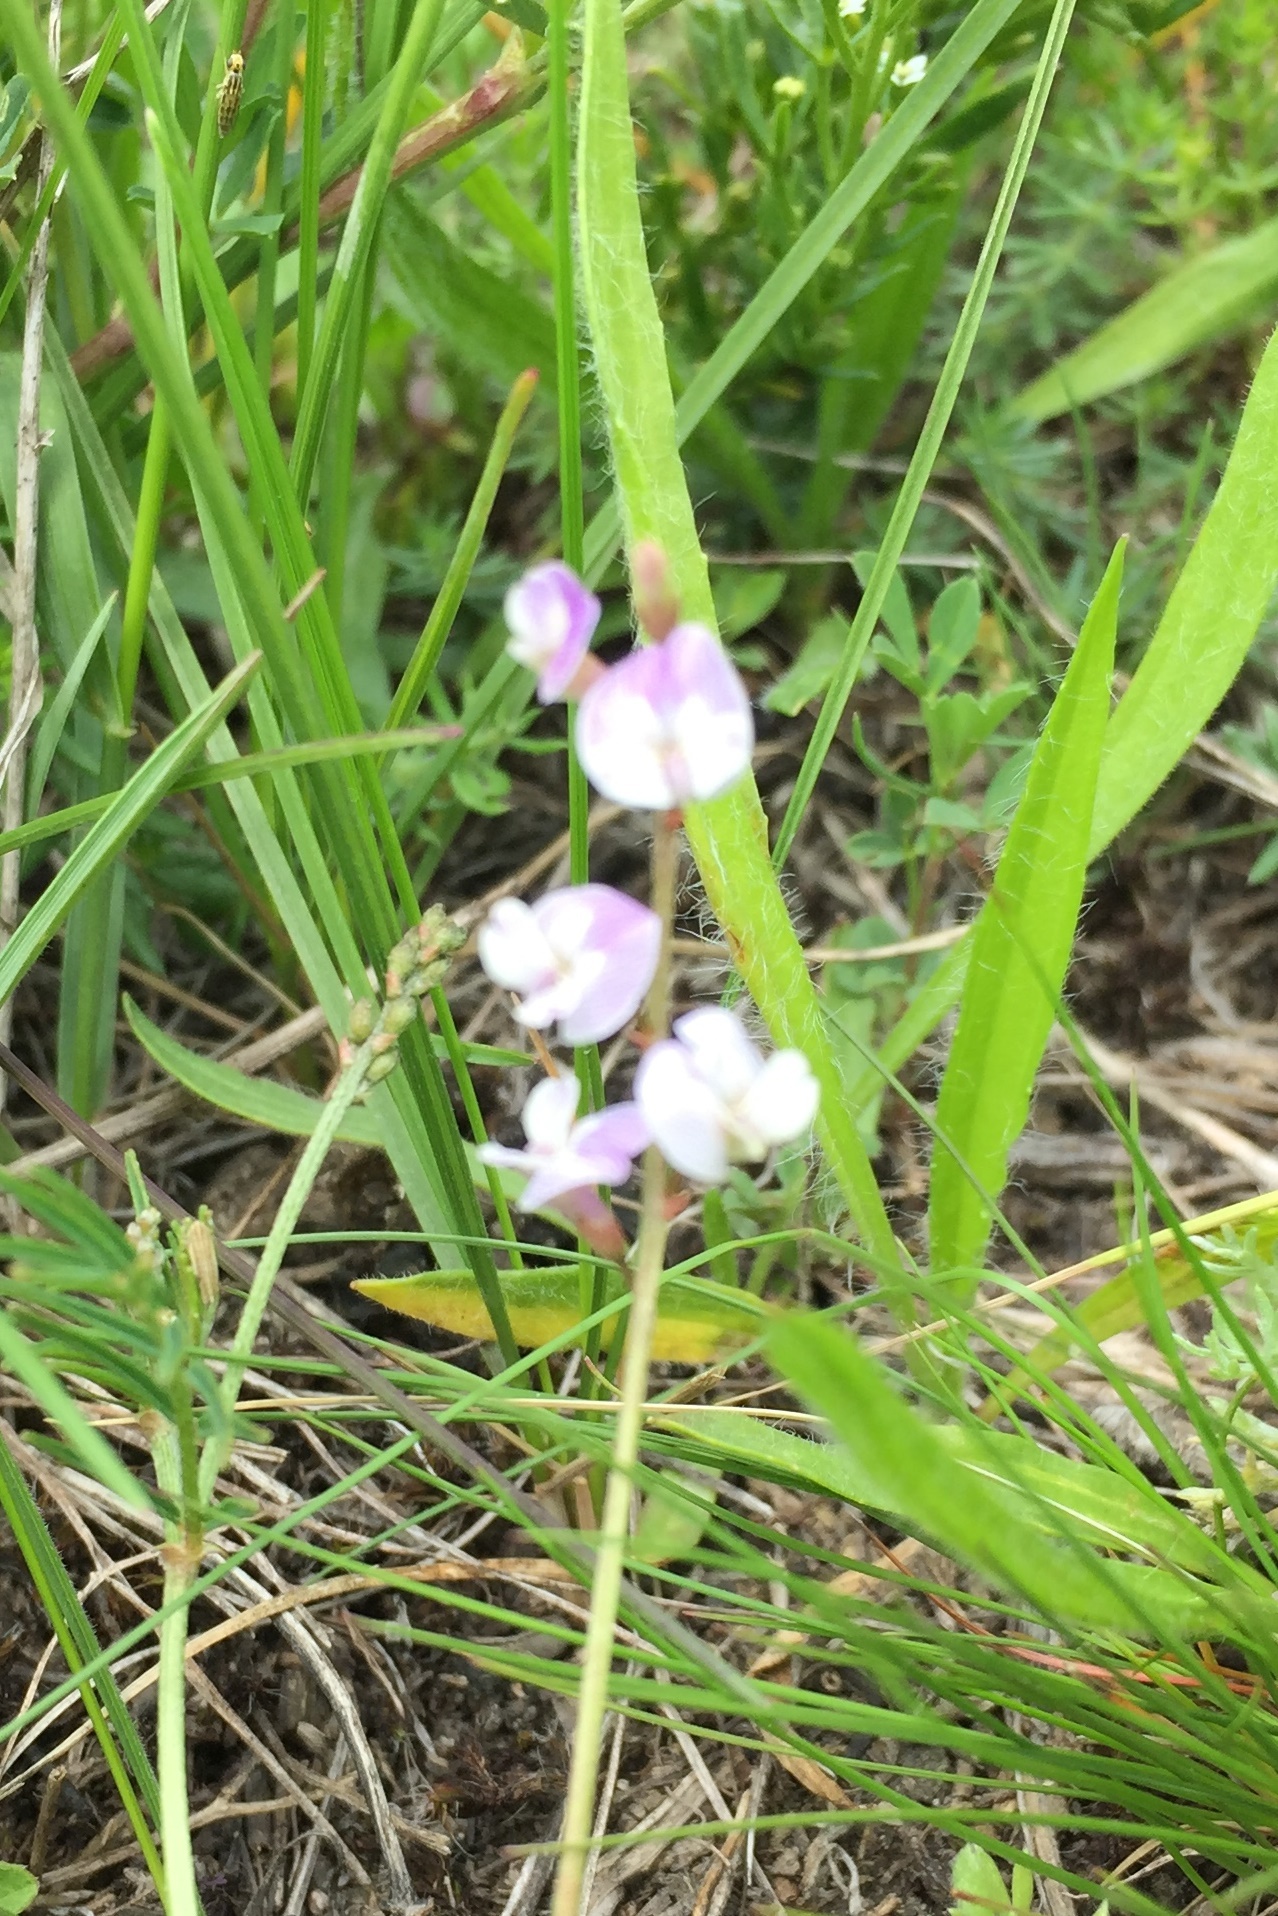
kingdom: Plantae
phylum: Tracheophyta
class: Magnoliopsida
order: Fabales
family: Fabaceae
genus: Astragalus
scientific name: Astragalus austriacus
